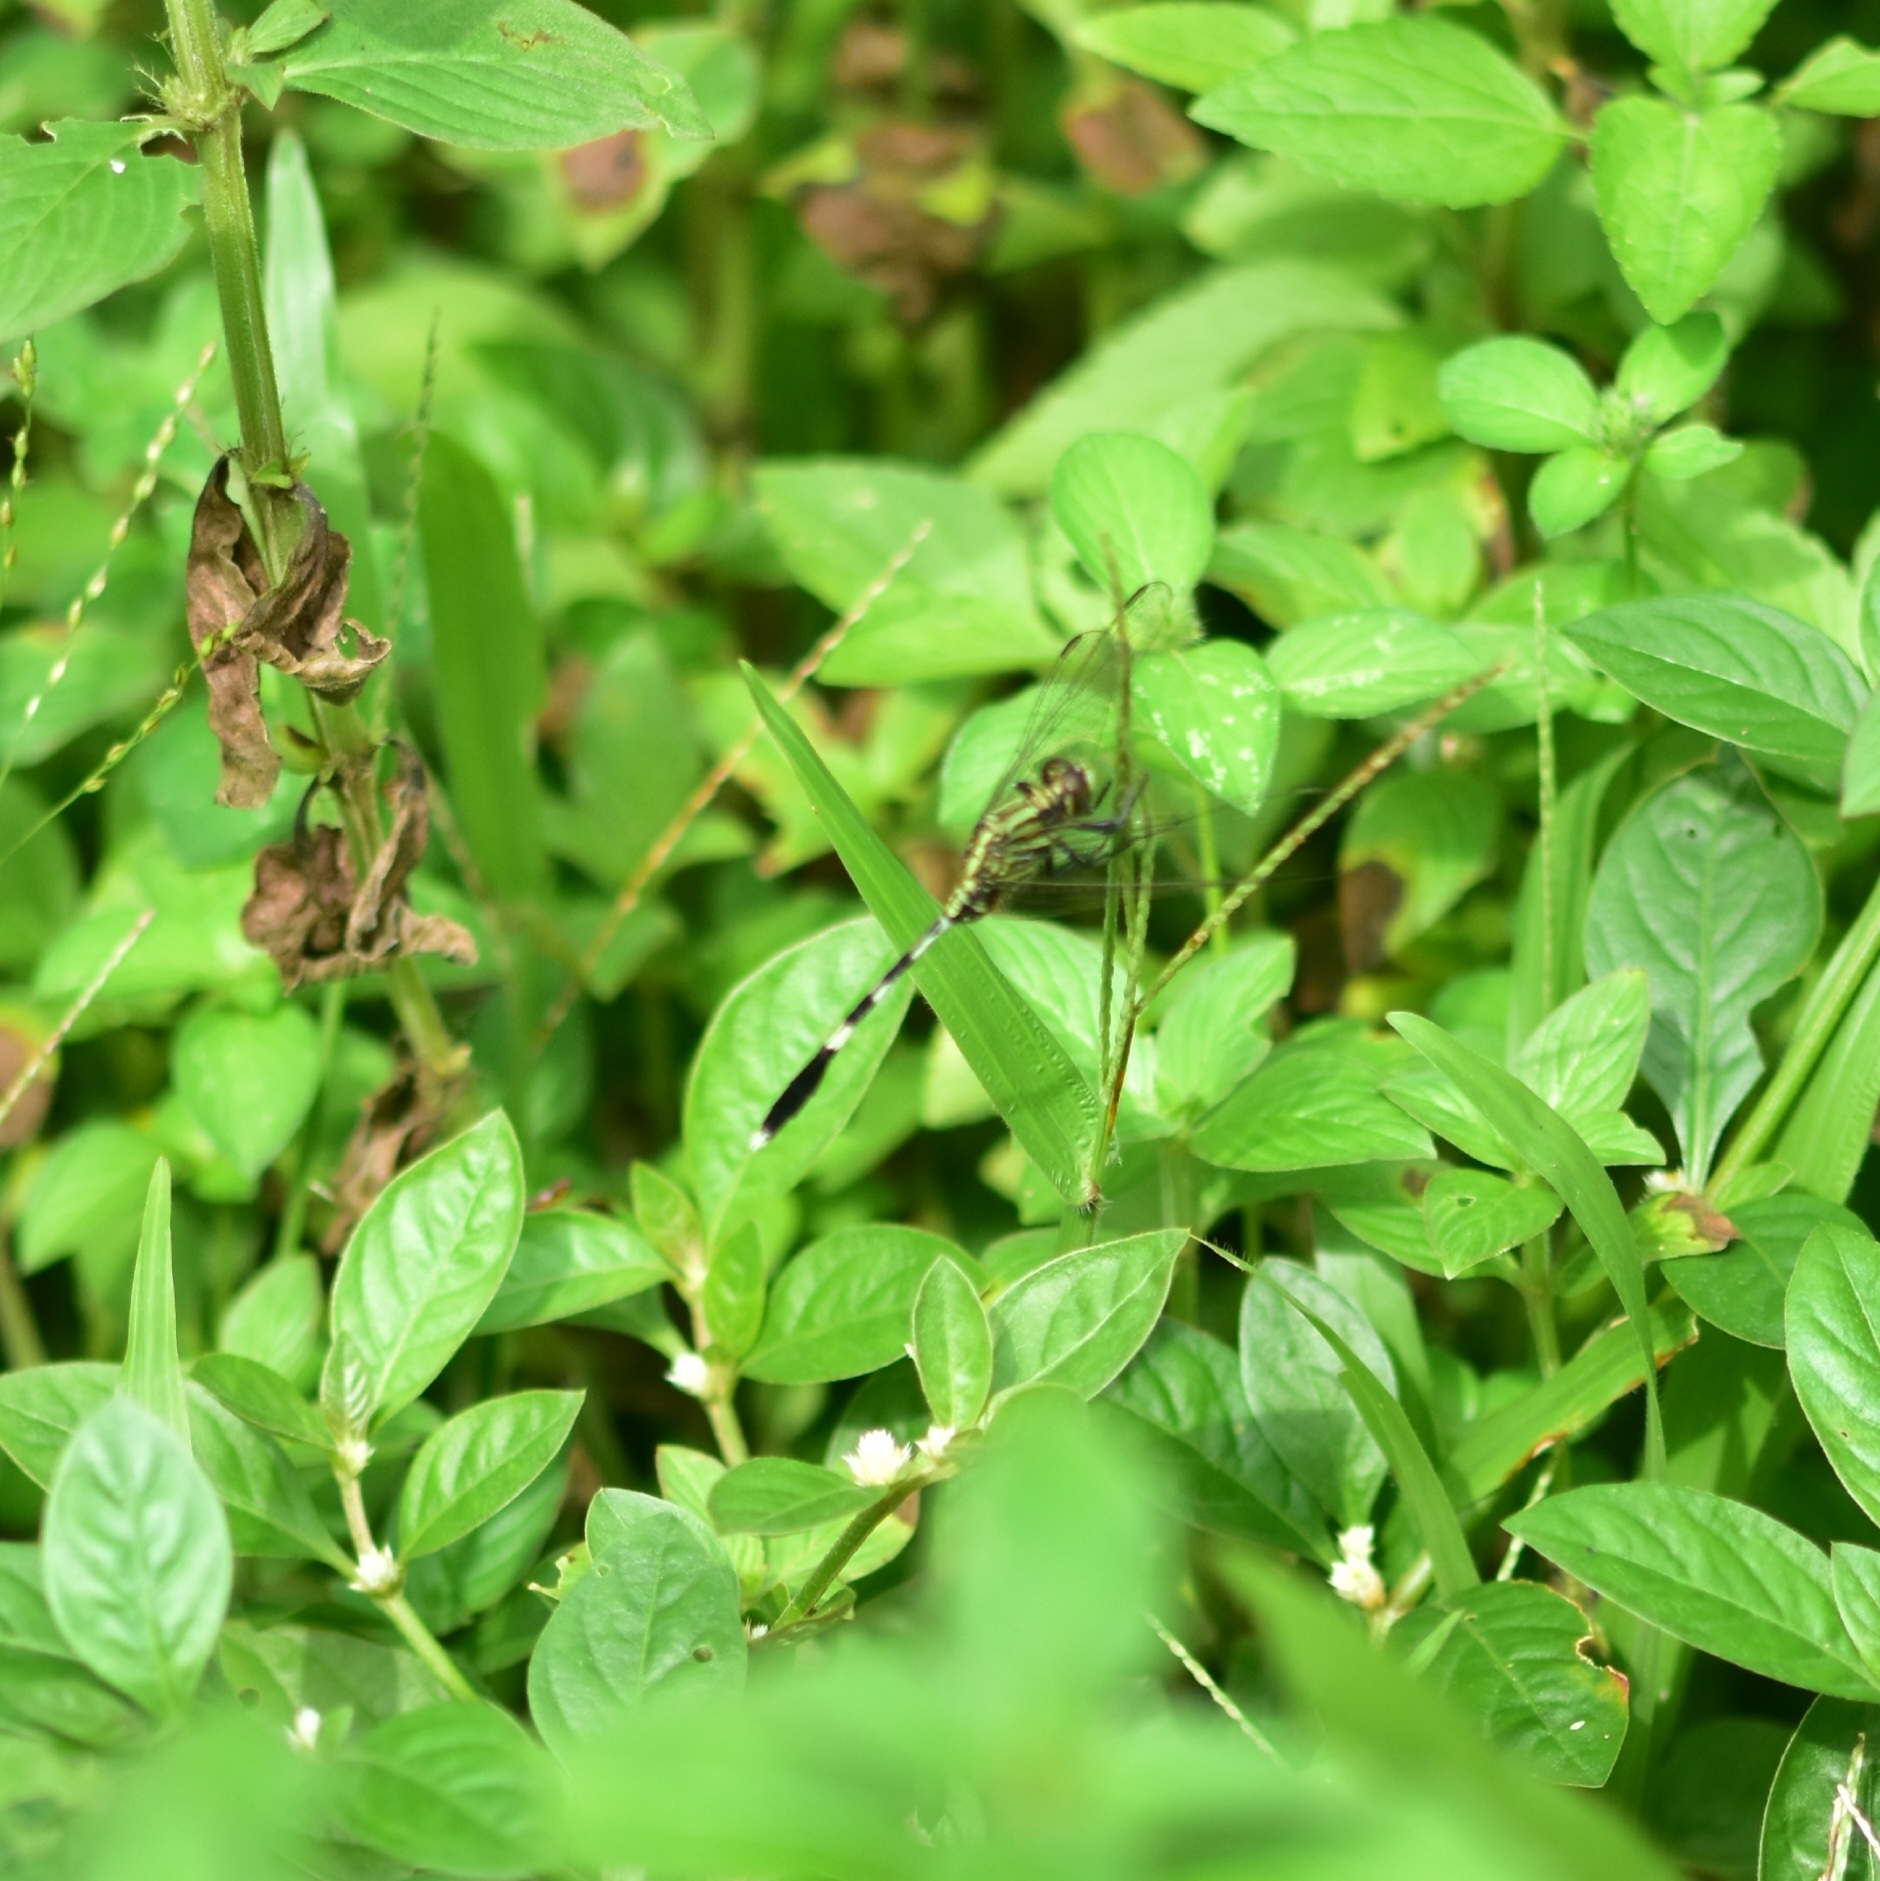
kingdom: Animalia
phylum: Arthropoda
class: Insecta
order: Odonata
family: Libellulidae
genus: Orthetrum
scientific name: Orthetrum sabina
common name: Slender skimmer
